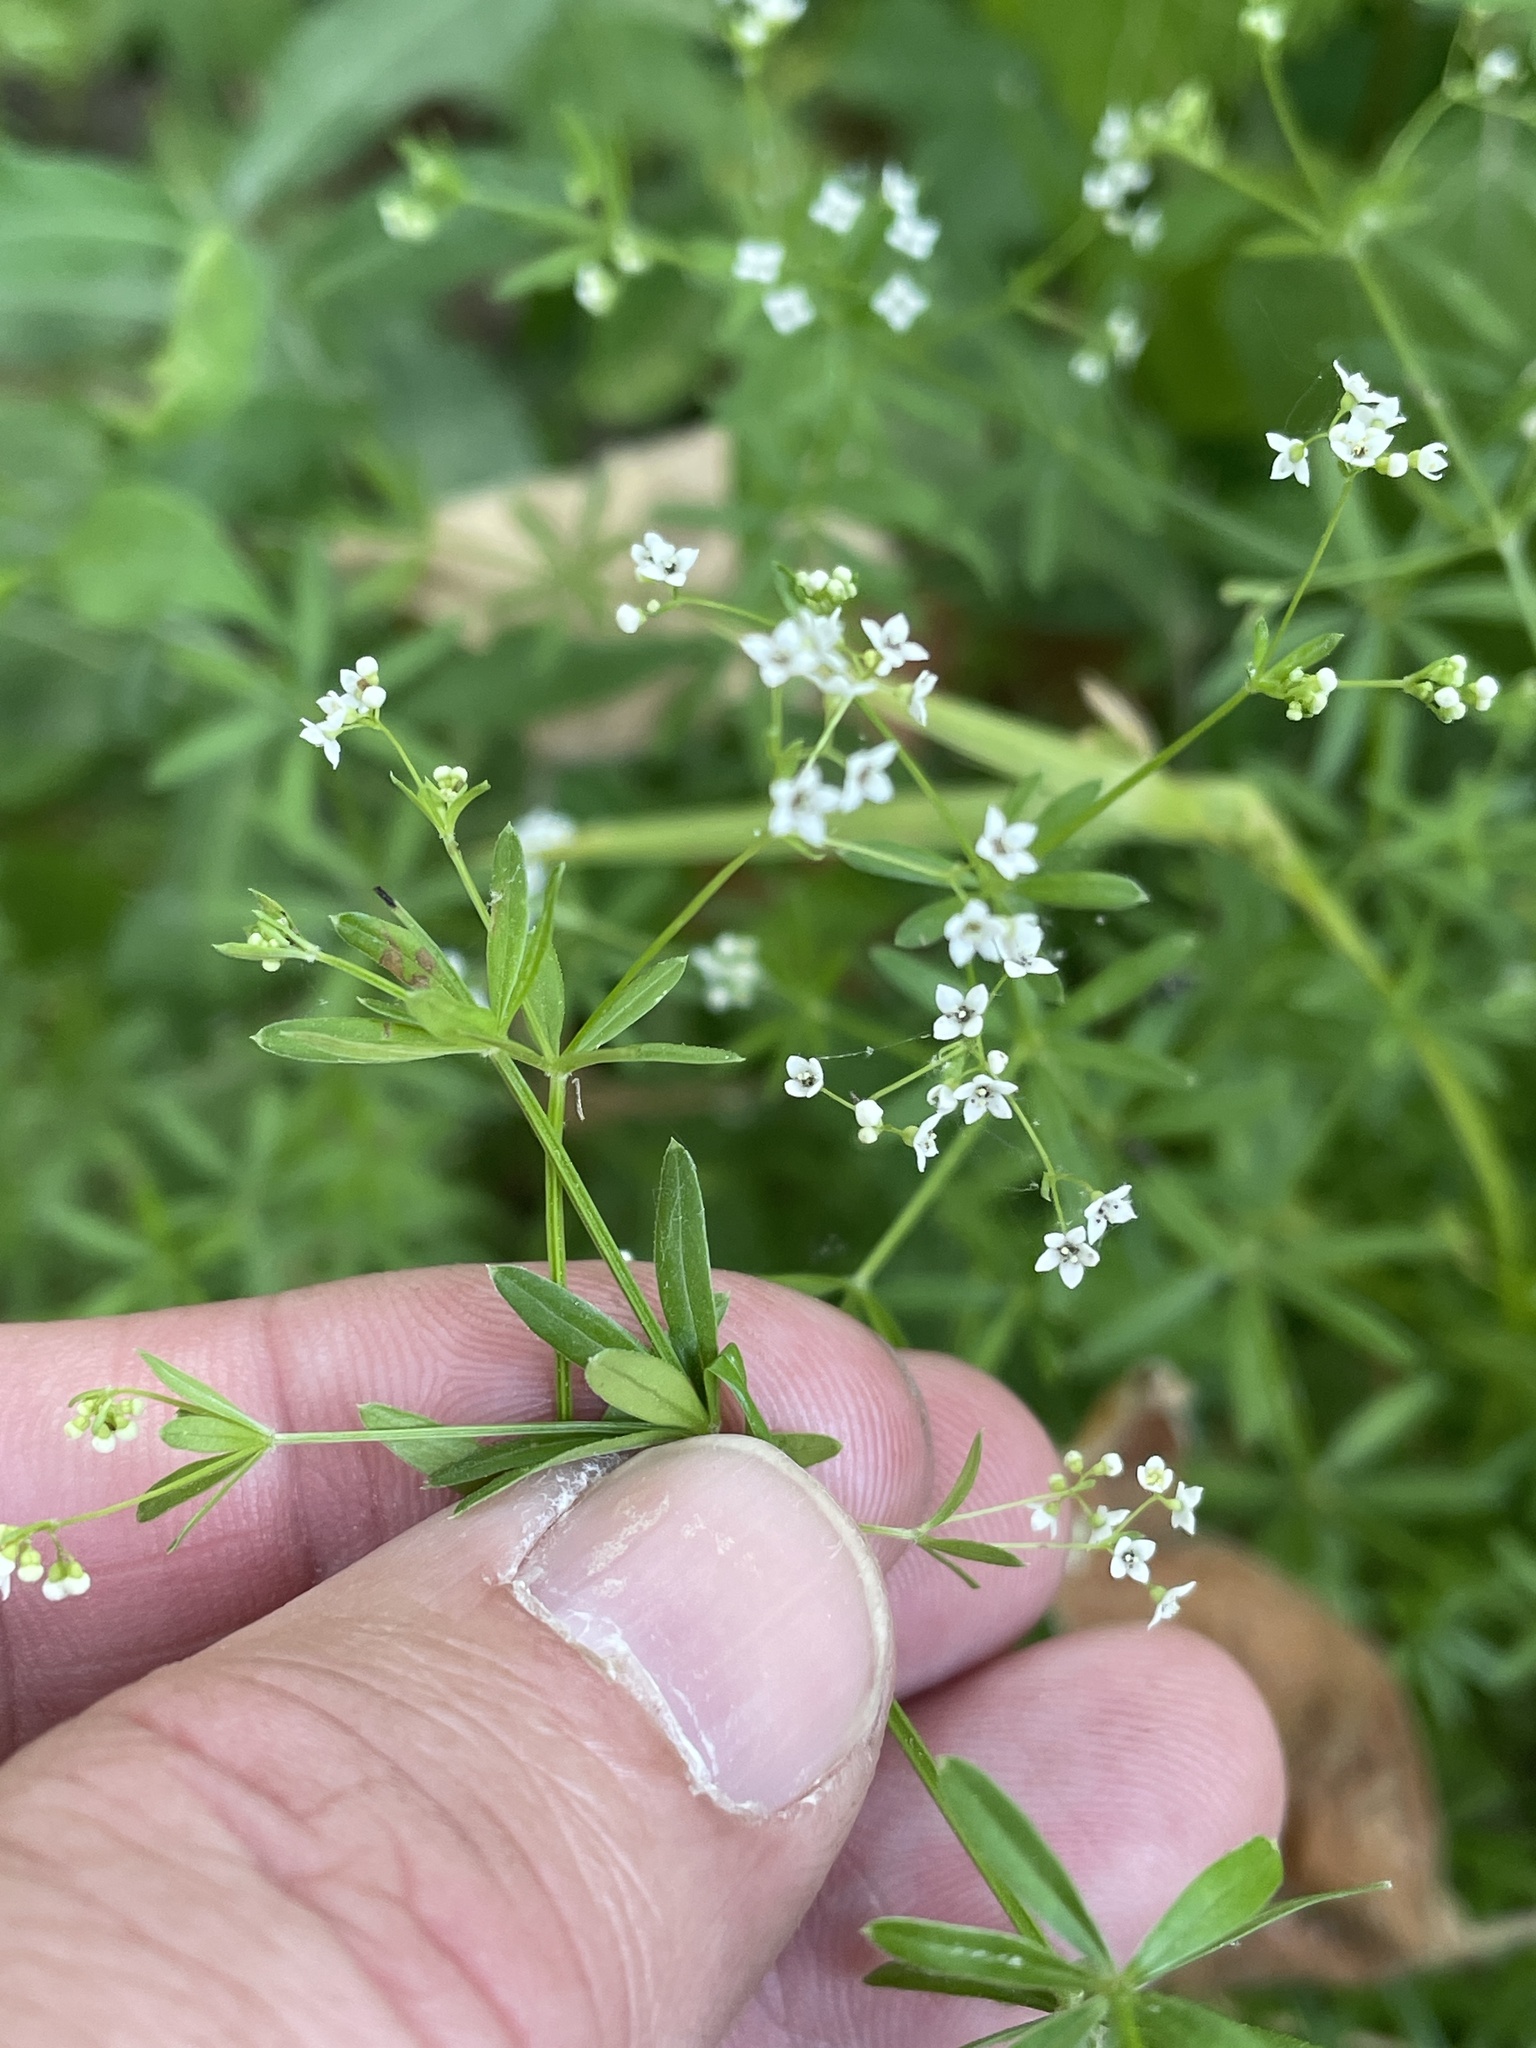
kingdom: Plantae
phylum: Tracheophyta
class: Magnoliopsida
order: Gentianales
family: Rubiaceae
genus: Galium
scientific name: Galium concinnum
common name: Shining bedstraw
